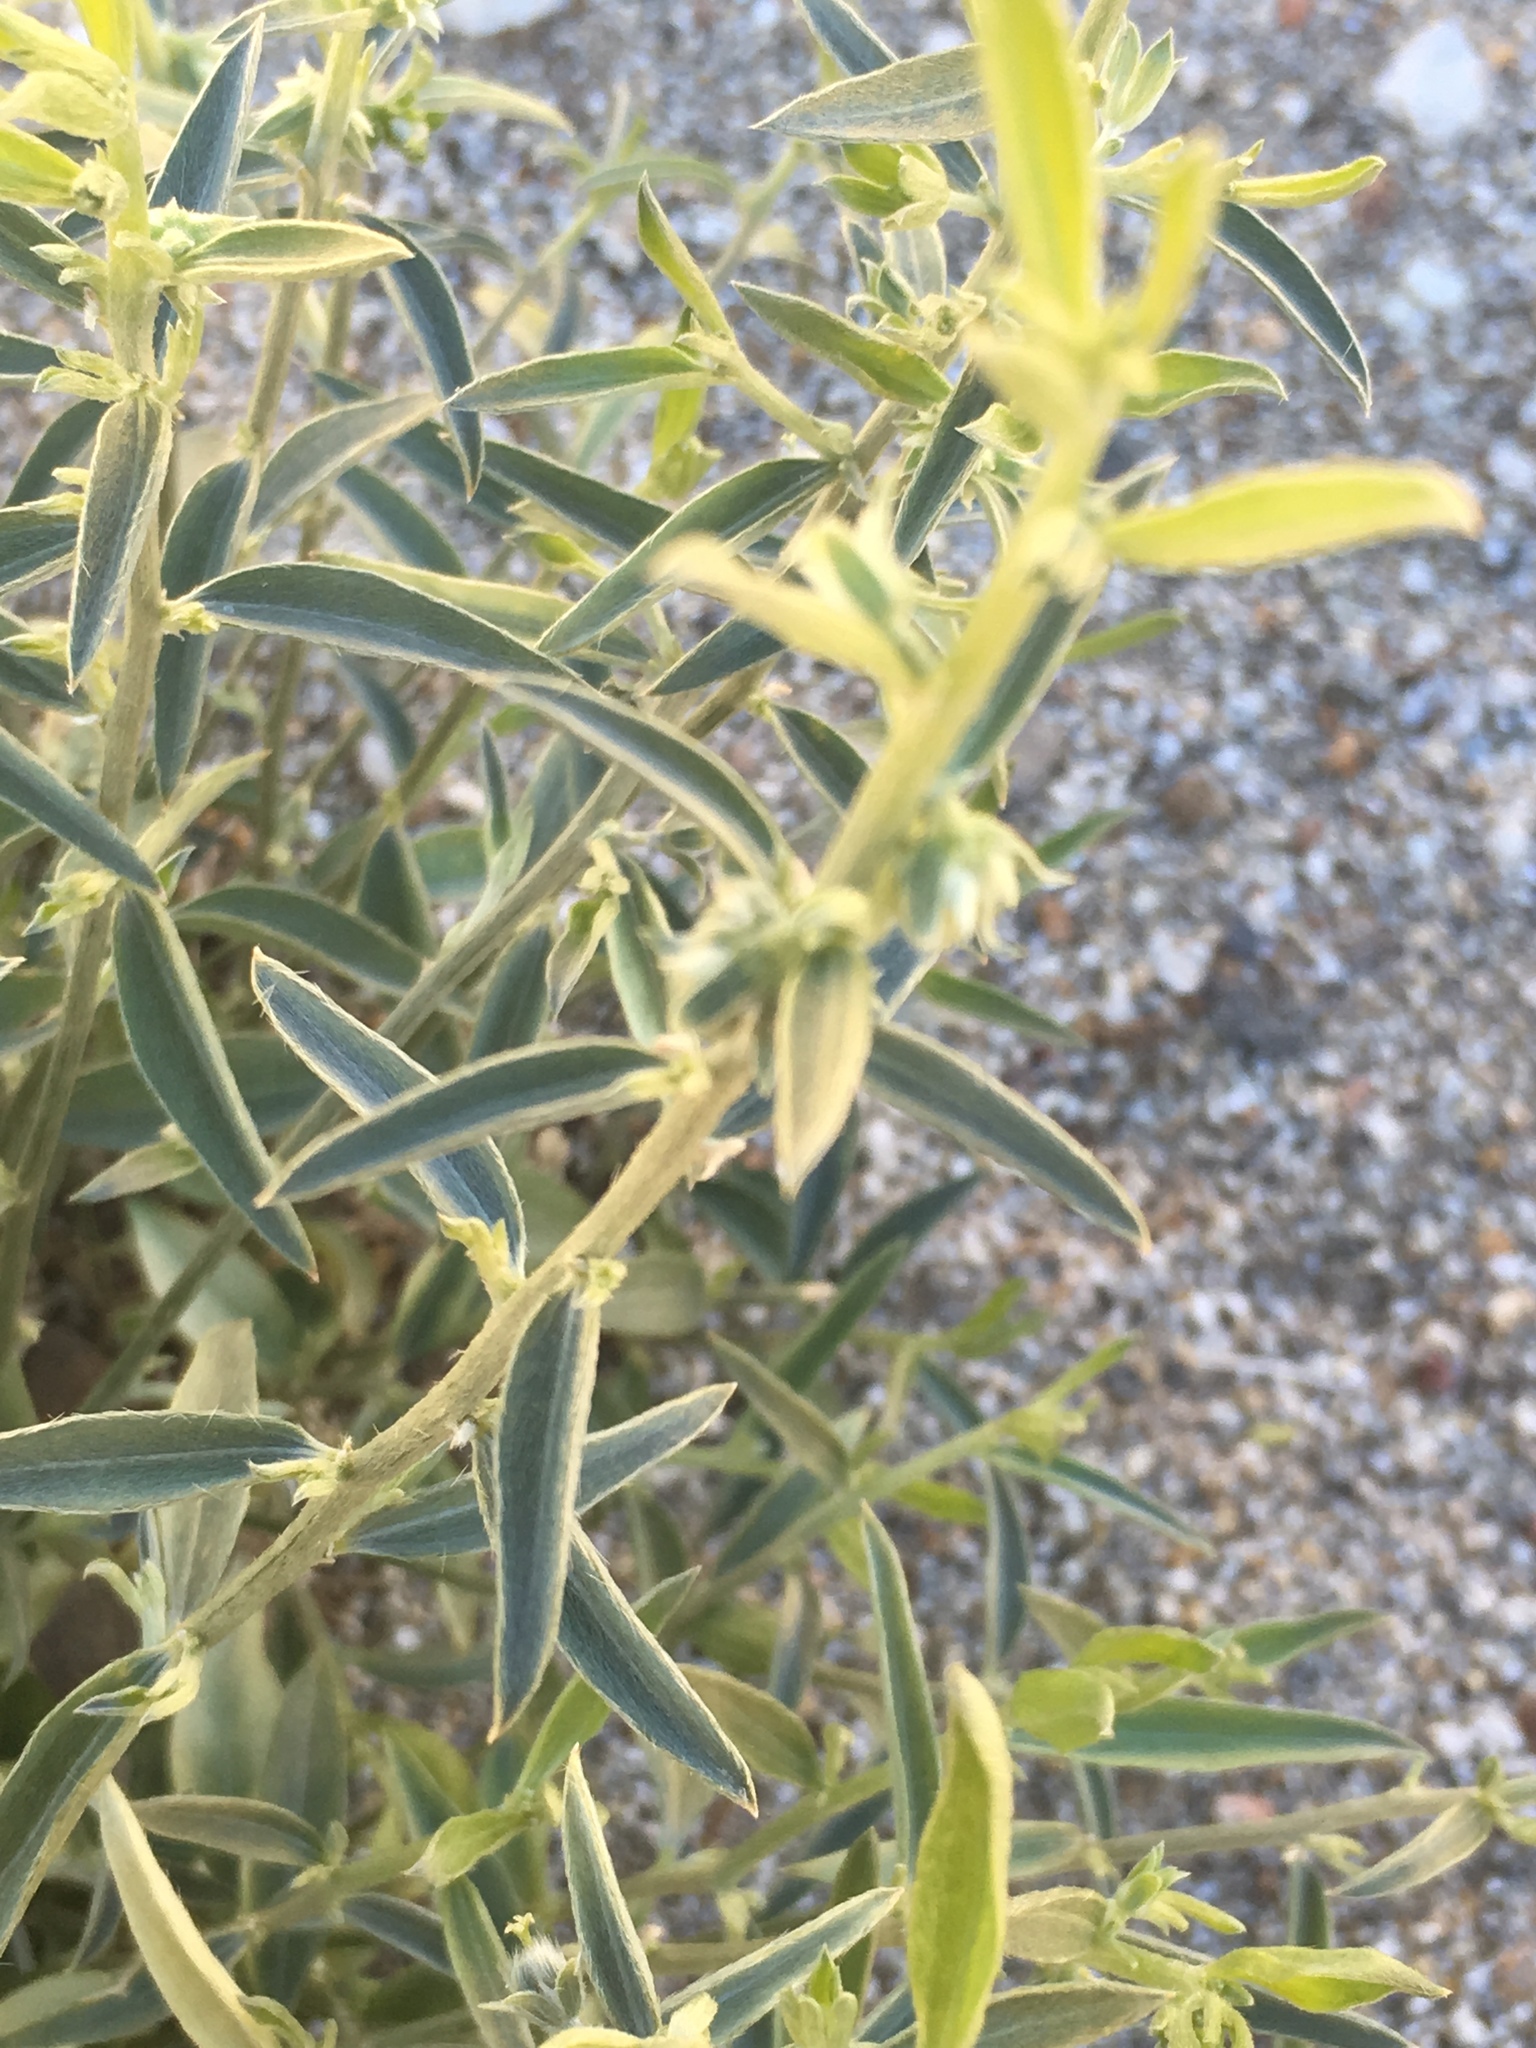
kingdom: Plantae
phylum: Tracheophyta
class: Magnoliopsida
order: Malpighiales
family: Euphorbiaceae
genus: Ditaxis
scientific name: Ditaxis lanceolata
